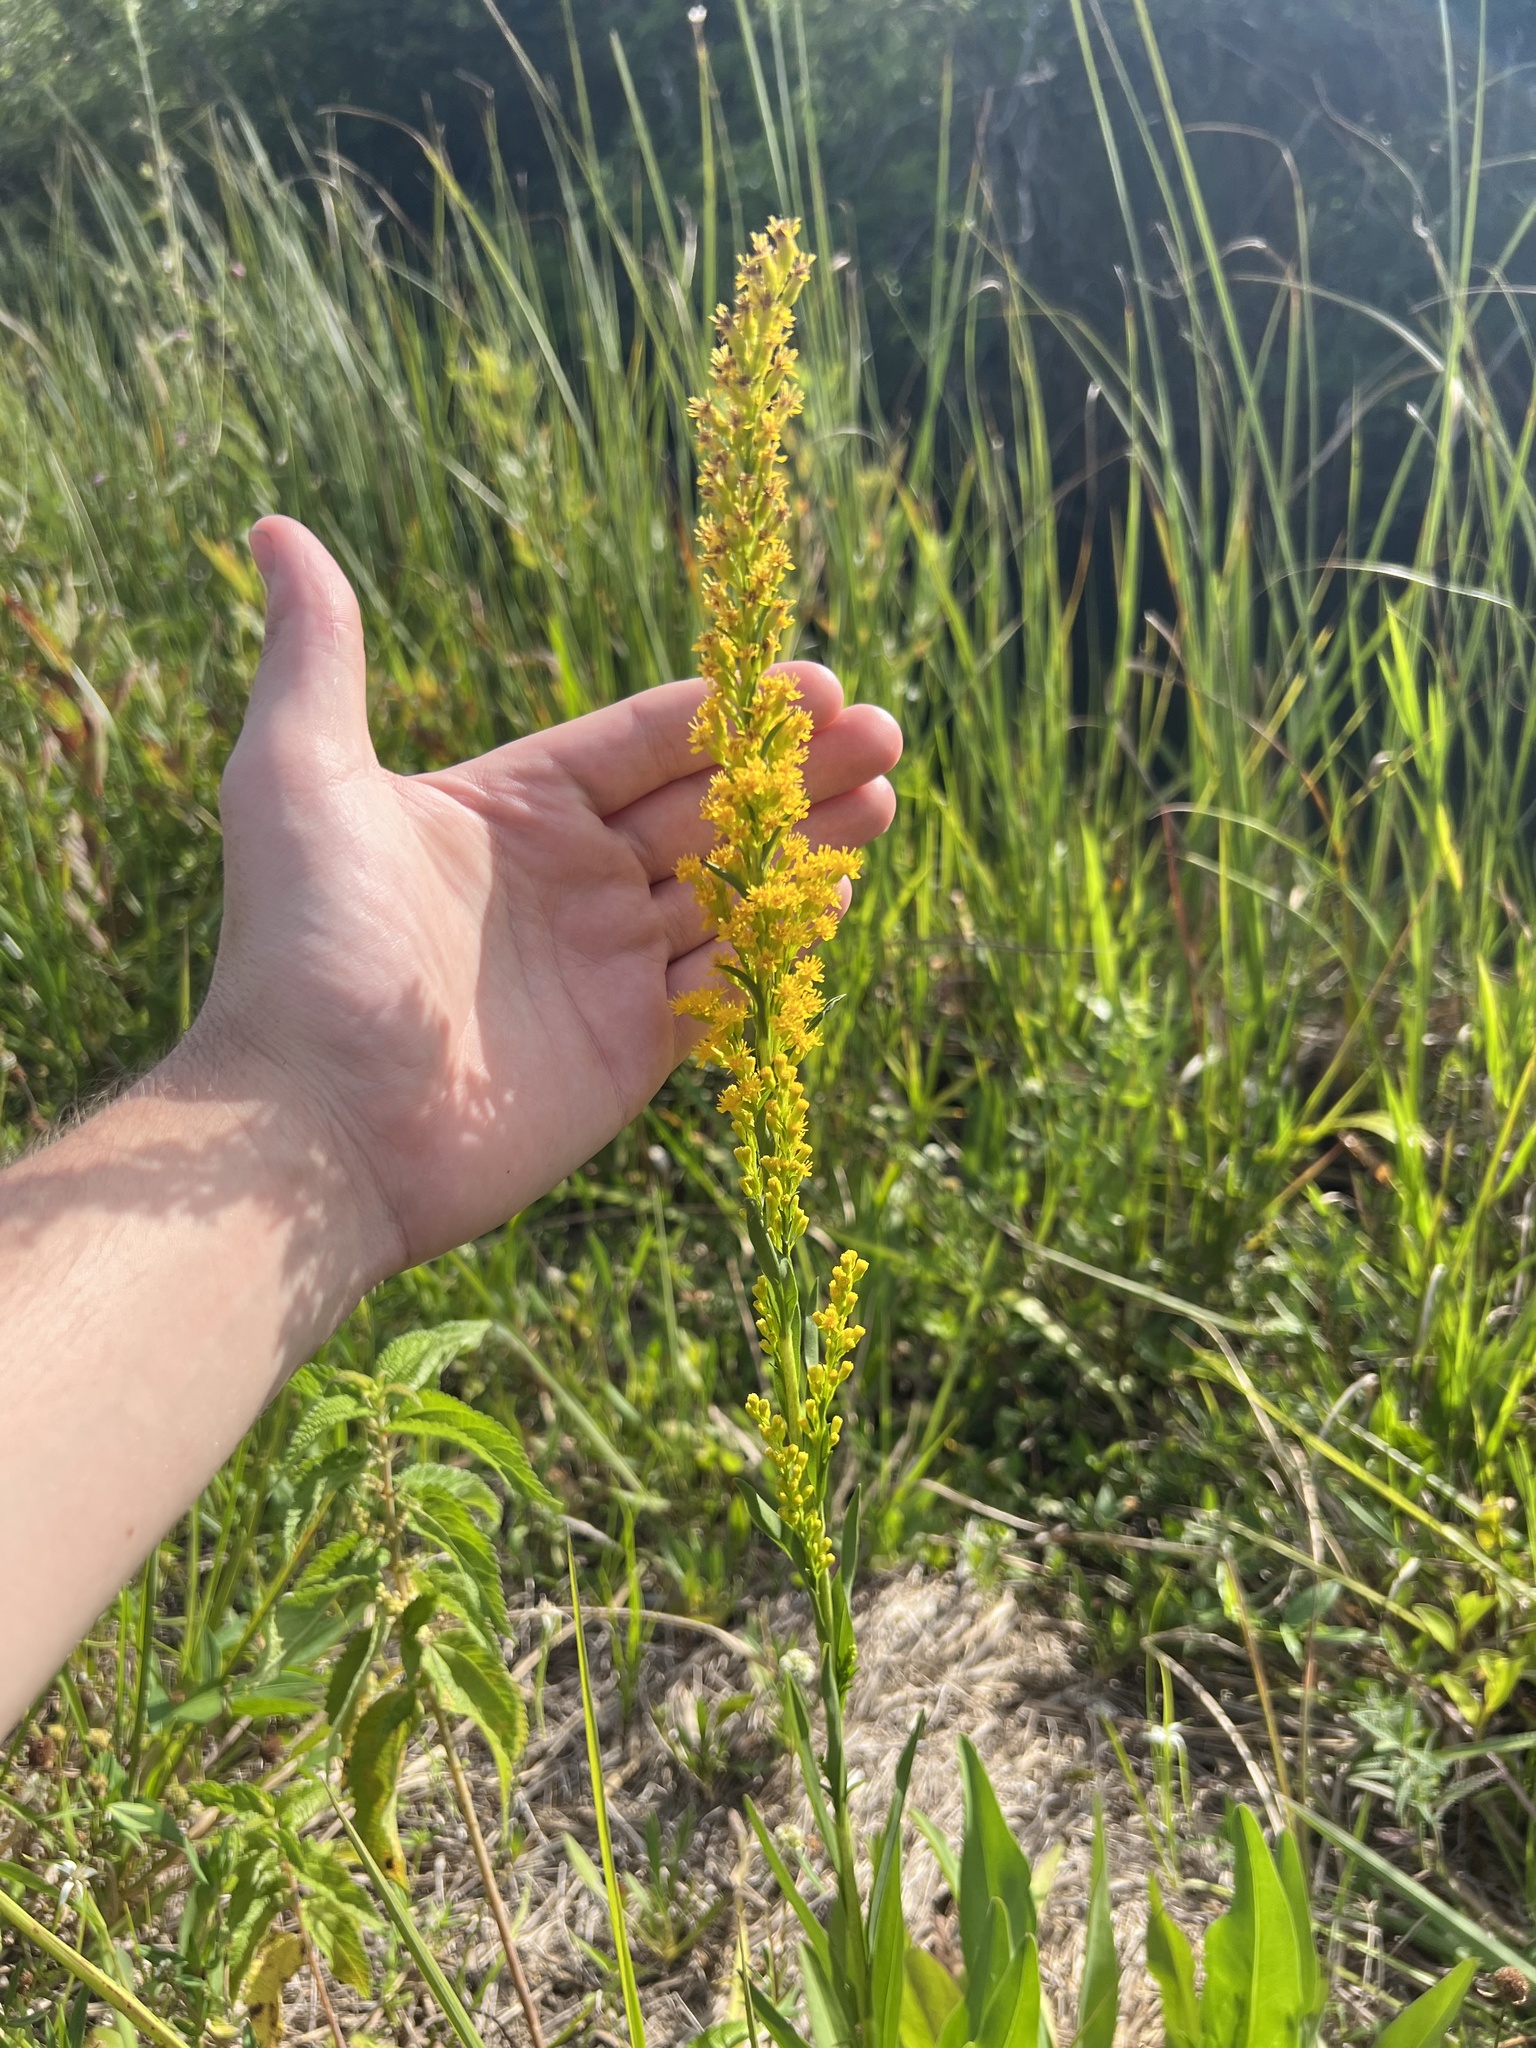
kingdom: Plantae
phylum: Tracheophyta
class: Magnoliopsida
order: Asterales
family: Asteraceae
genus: Solidago
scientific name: Solidago mexicana
